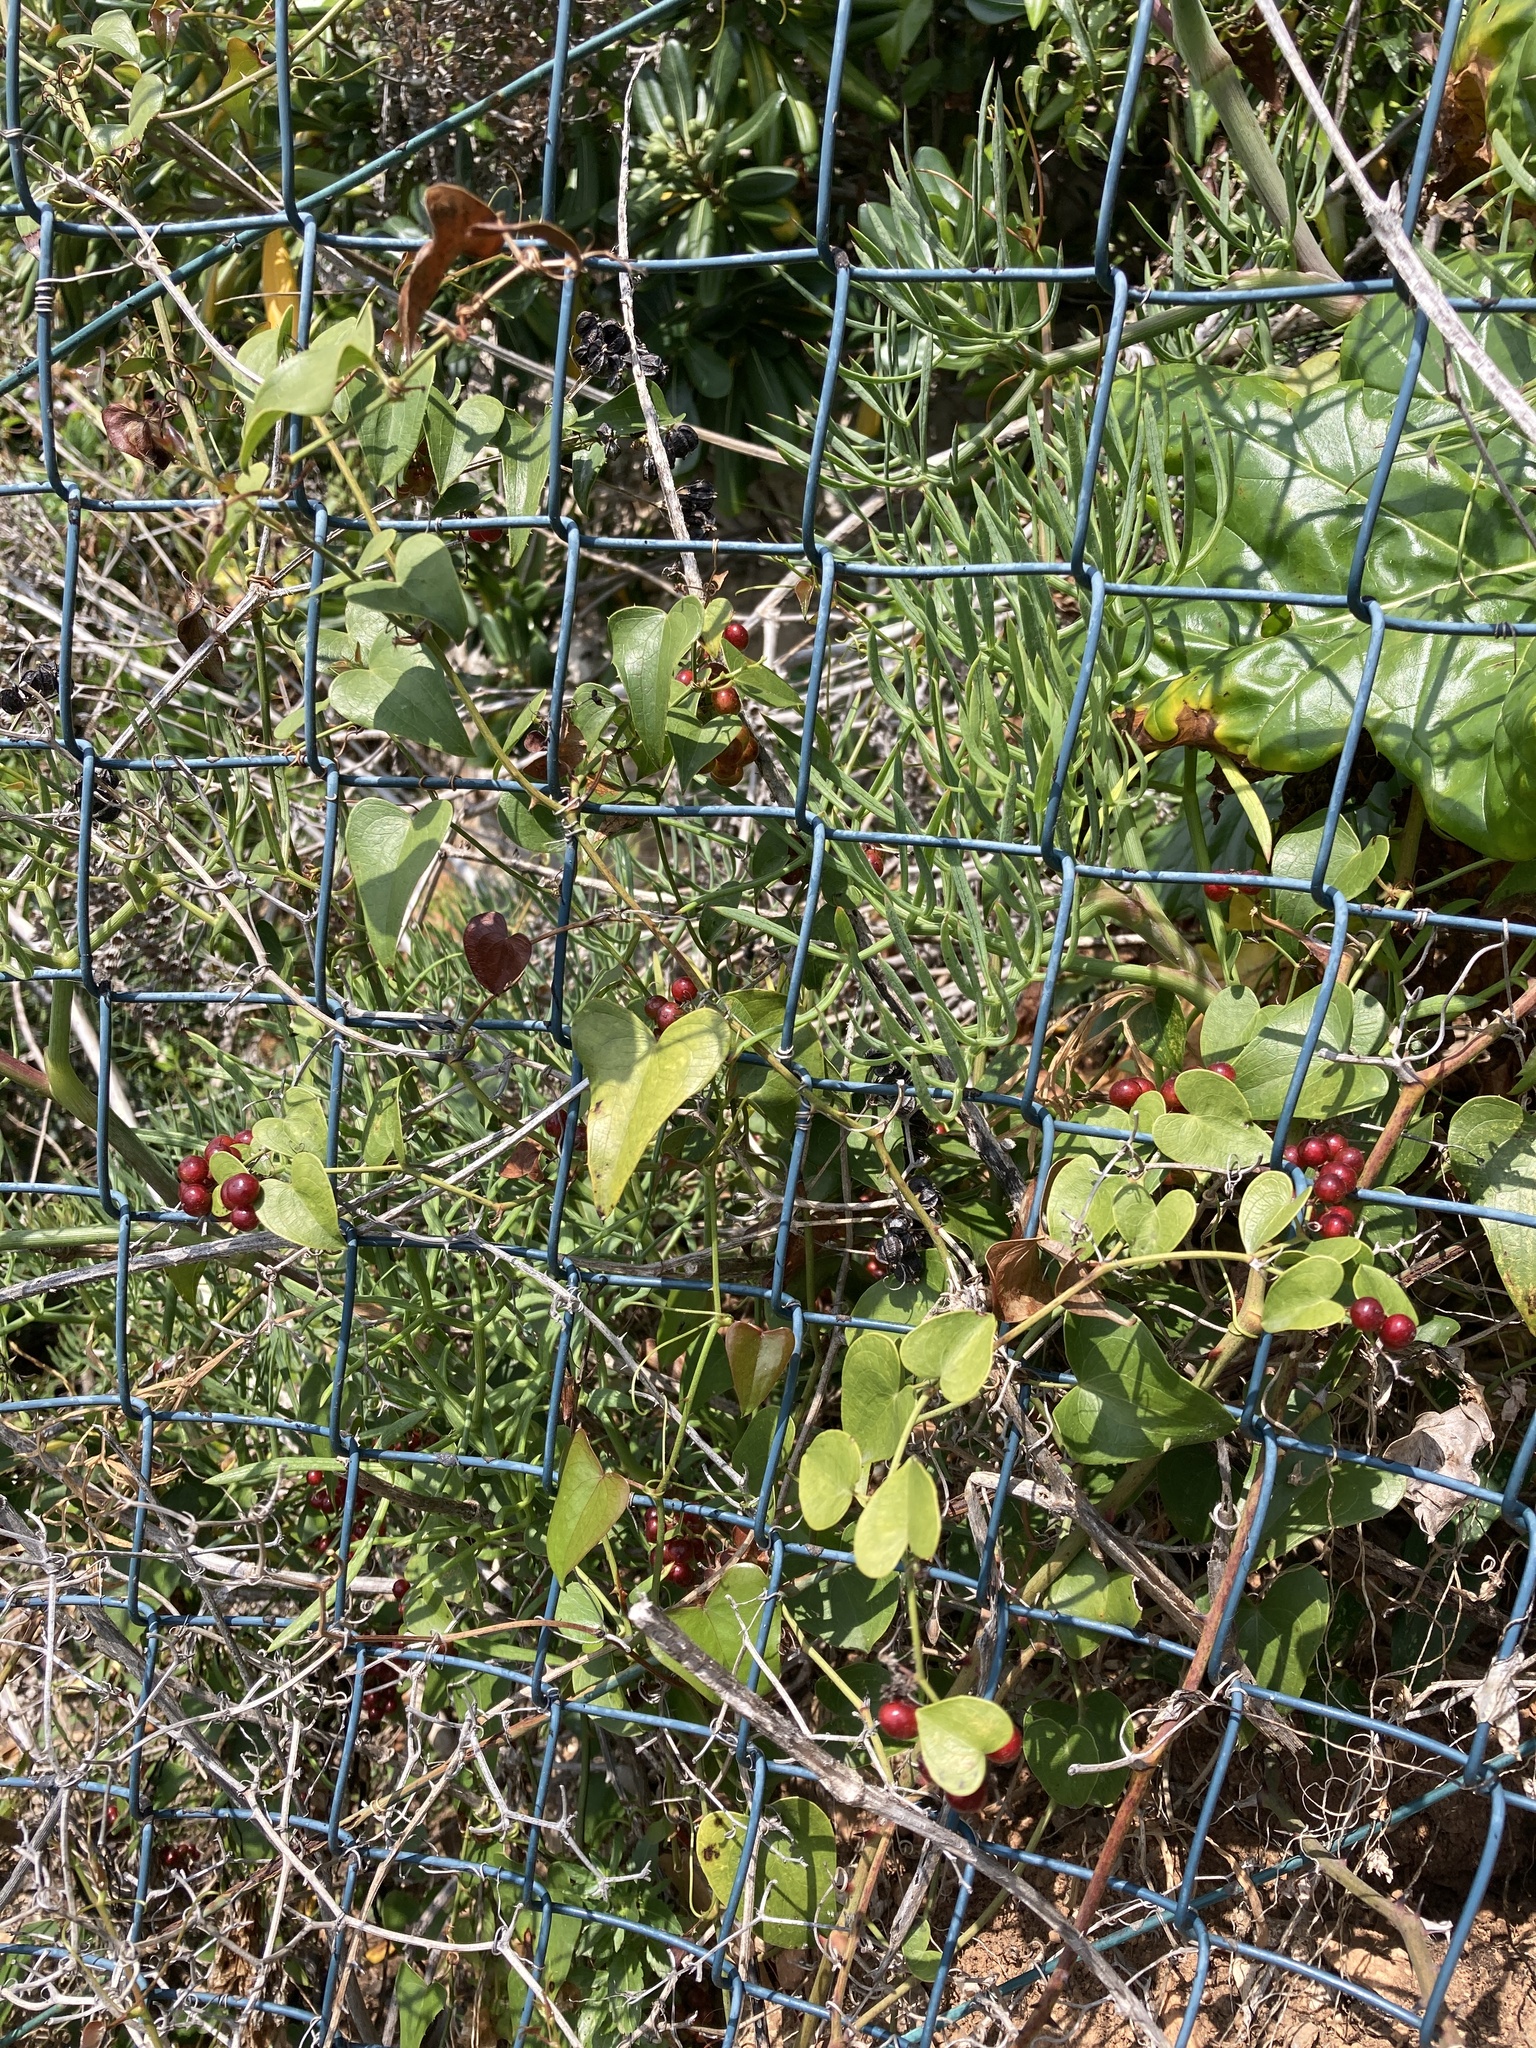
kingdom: Plantae
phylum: Tracheophyta
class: Liliopsida
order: Liliales
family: Smilacaceae
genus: Smilax
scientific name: Smilax aspera
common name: Common smilax
